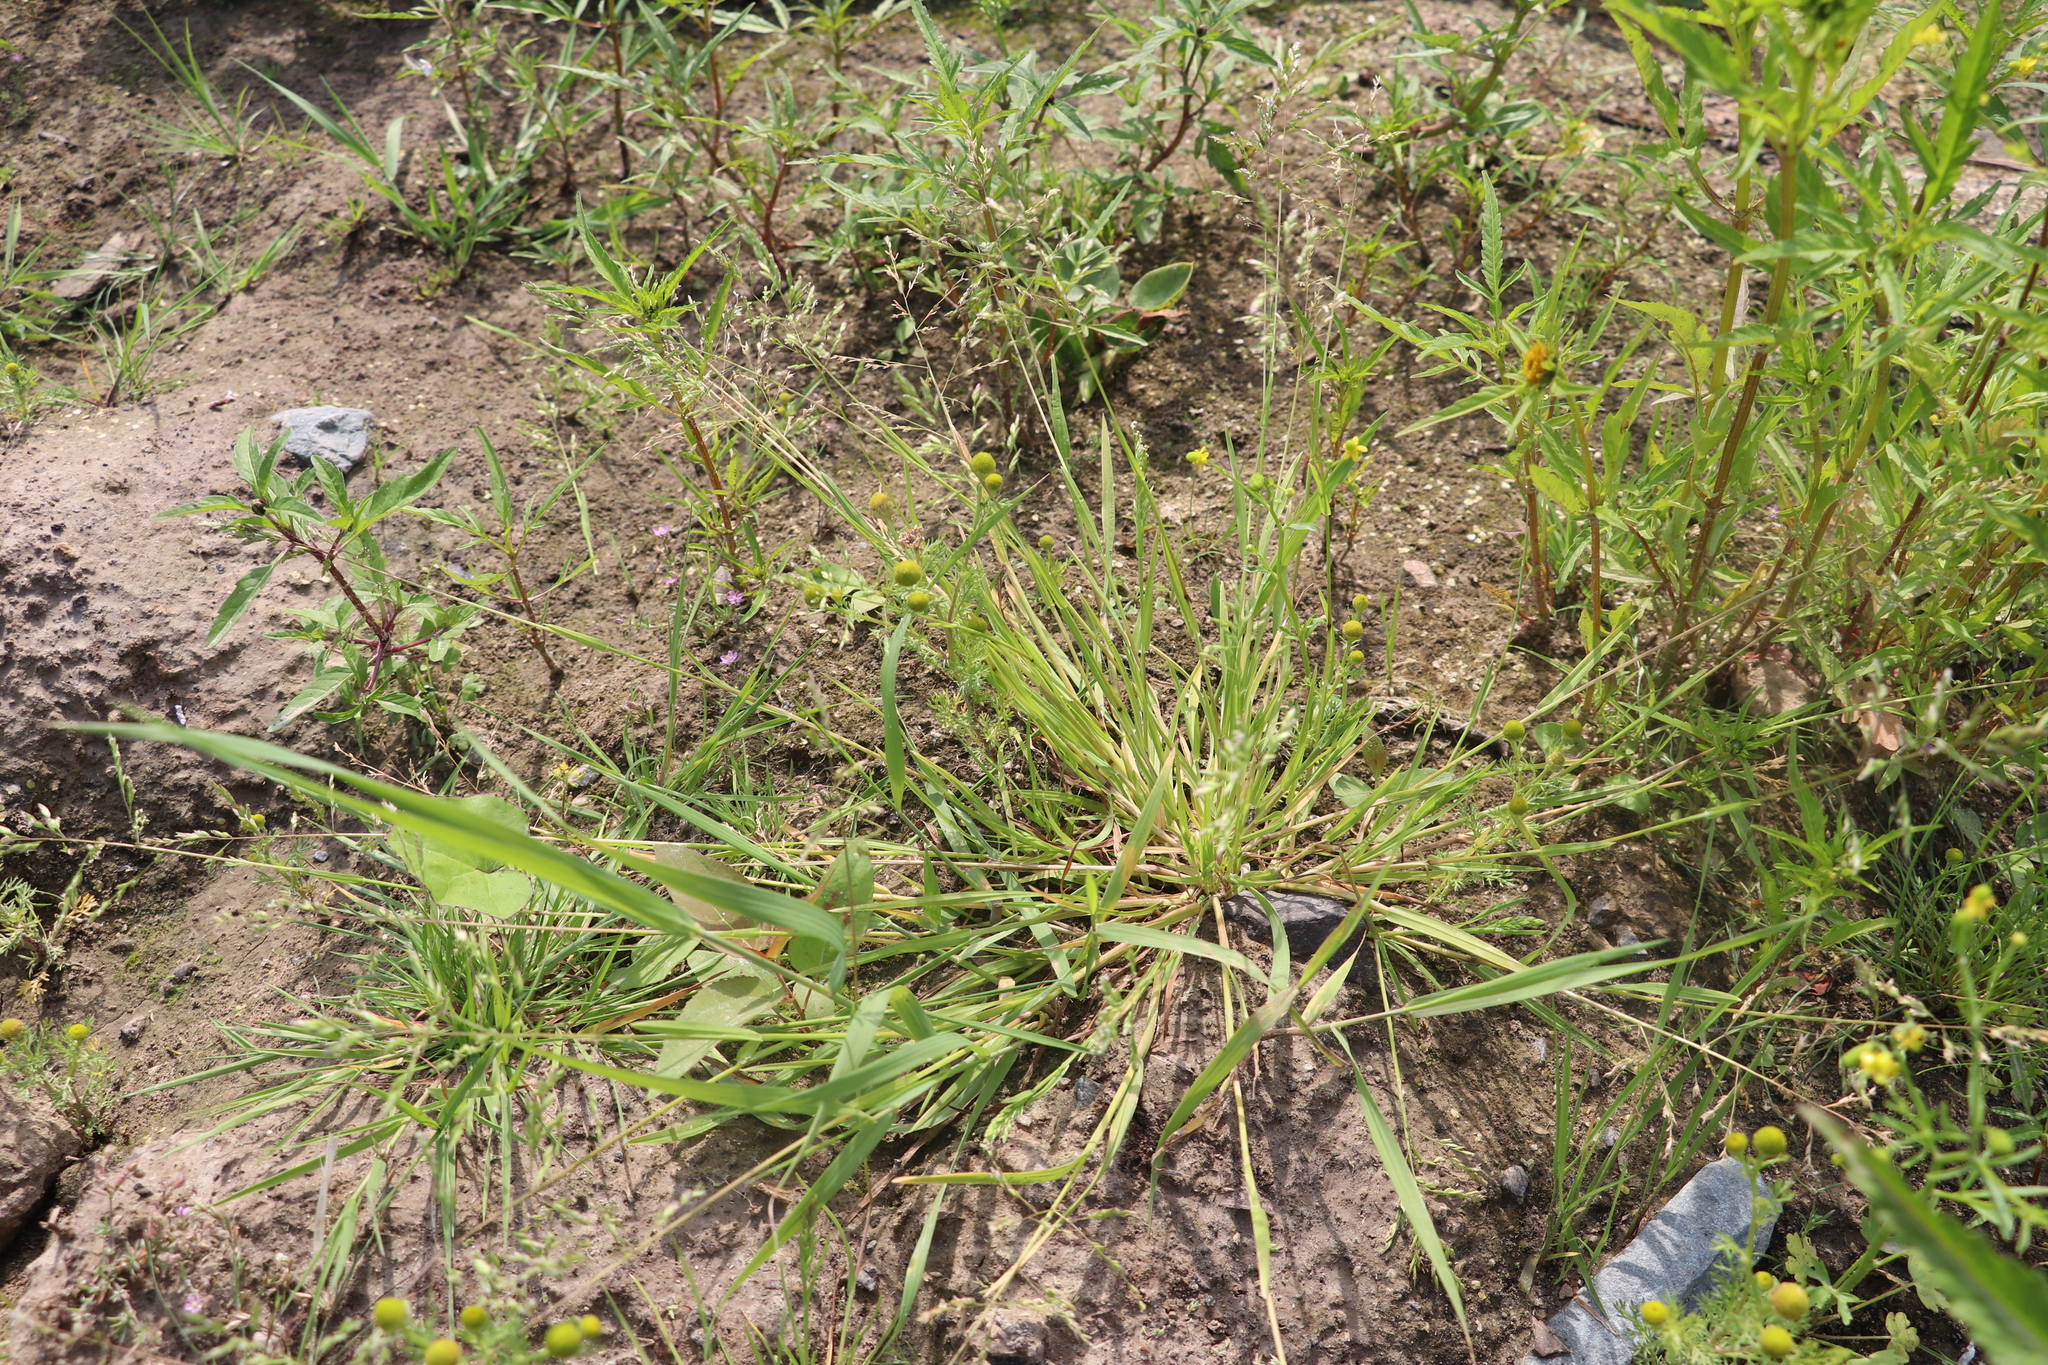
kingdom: Plantae
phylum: Tracheophyta
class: Liliopsida
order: Poales
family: Poaceae
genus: Poa
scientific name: Poa annua
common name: Annual bluegrass
